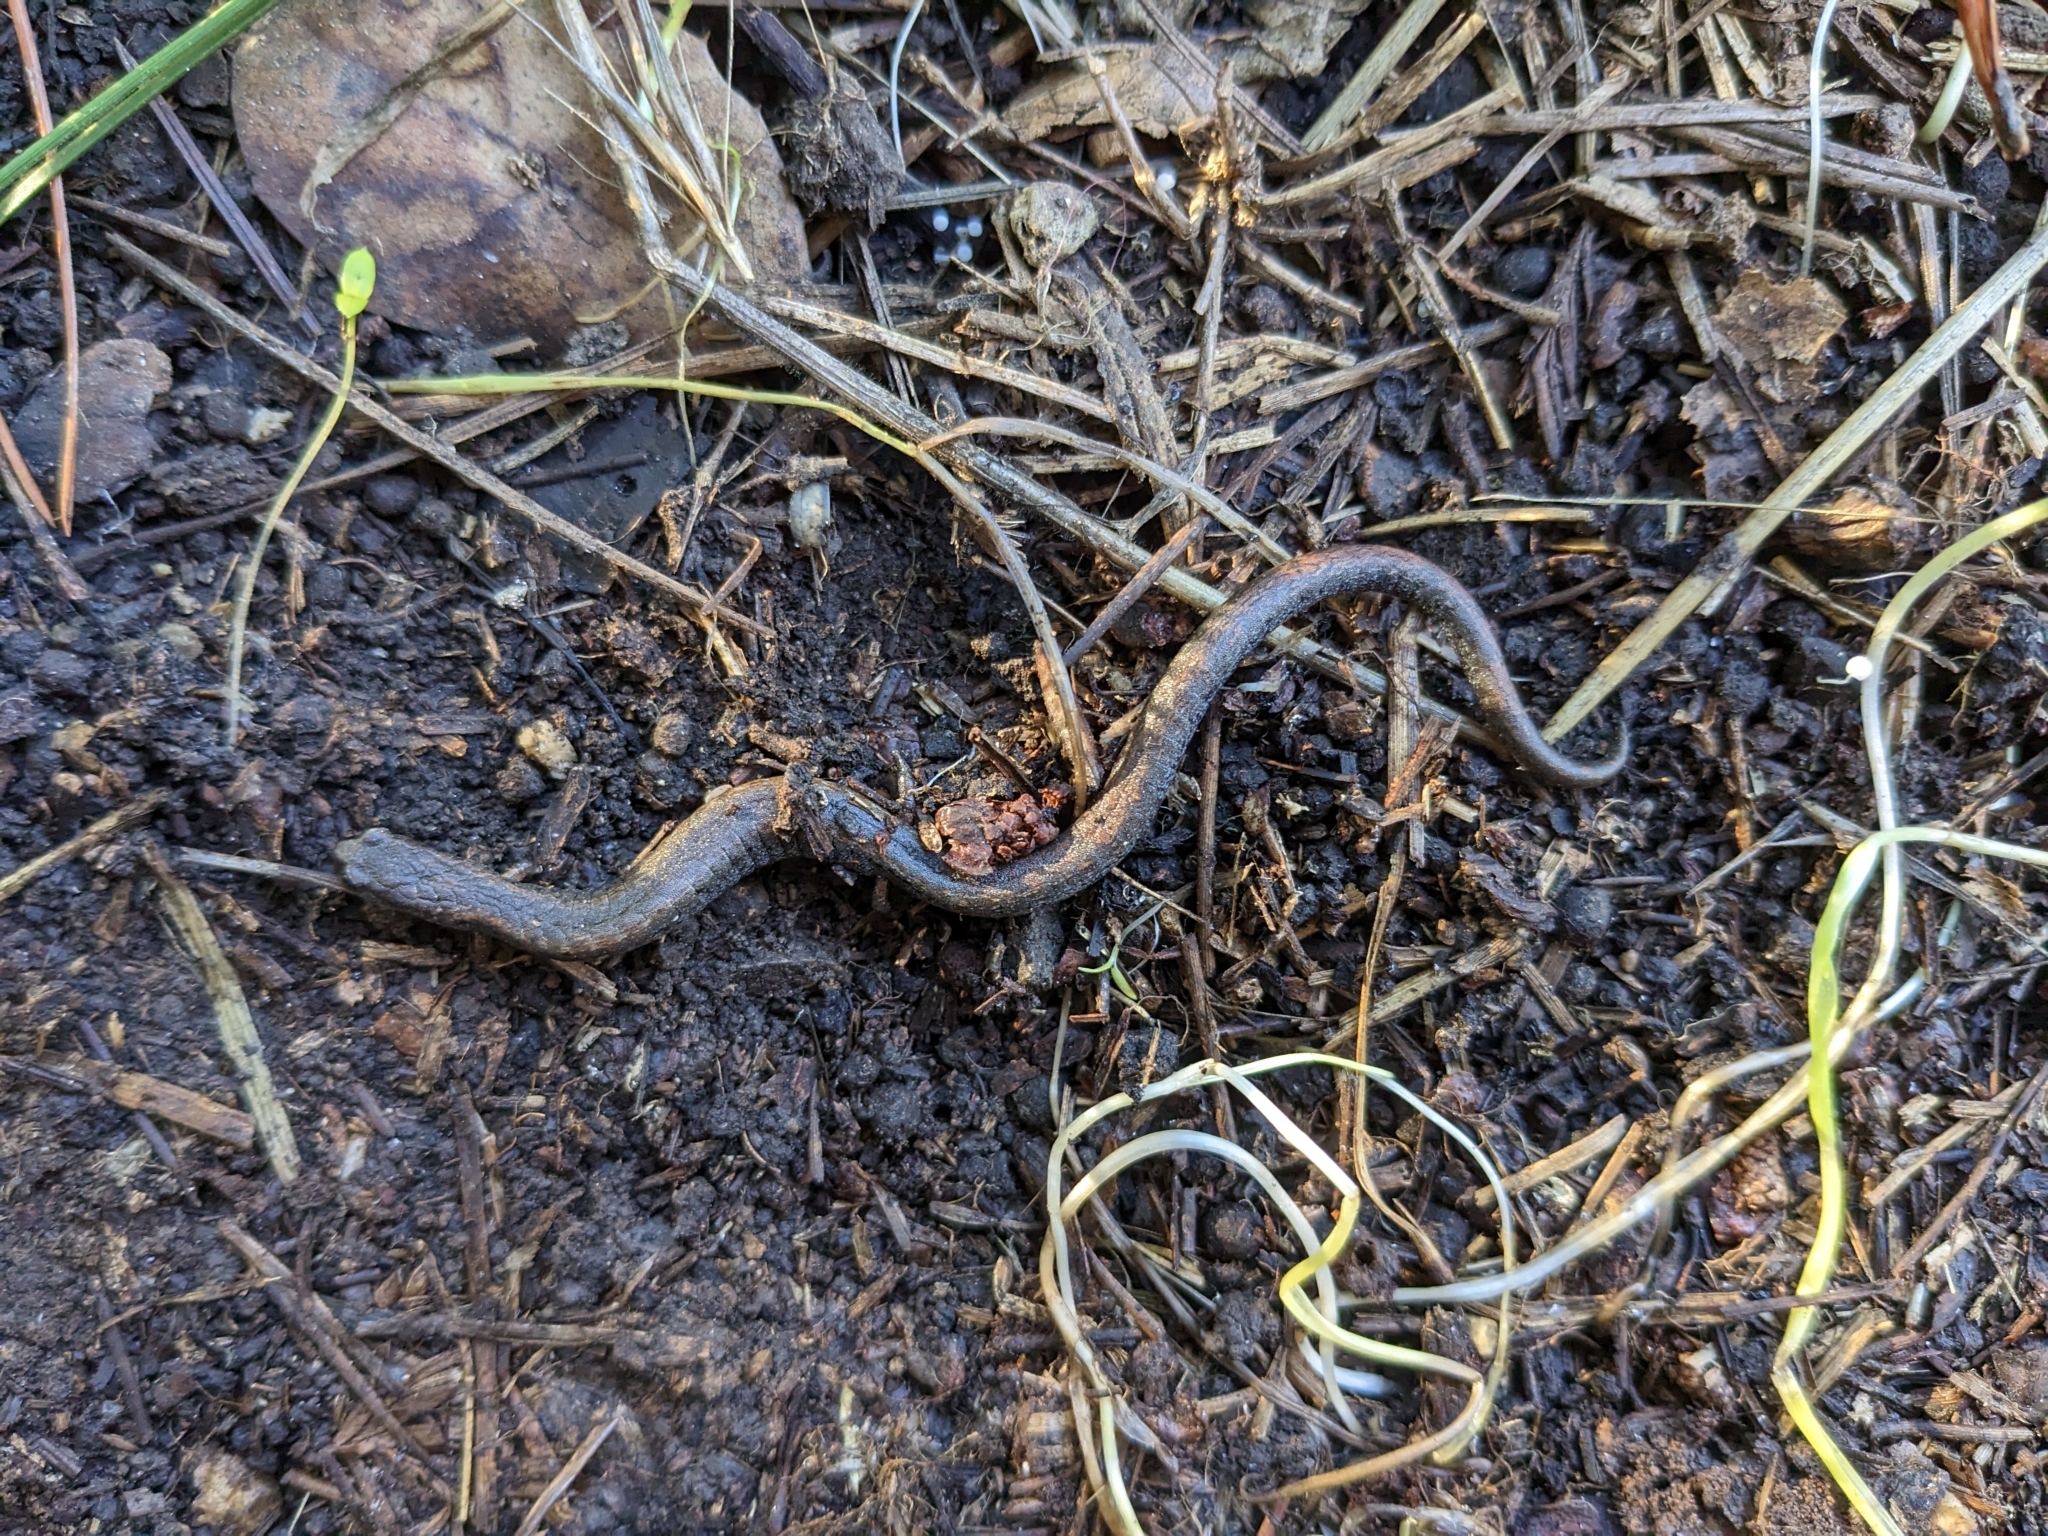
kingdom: Animalia
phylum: Chordata
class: Amphibia
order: Caudata
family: Plethodontidae
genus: Batrachoseps
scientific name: Batrachoseps attenuatus
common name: California slender salamander
